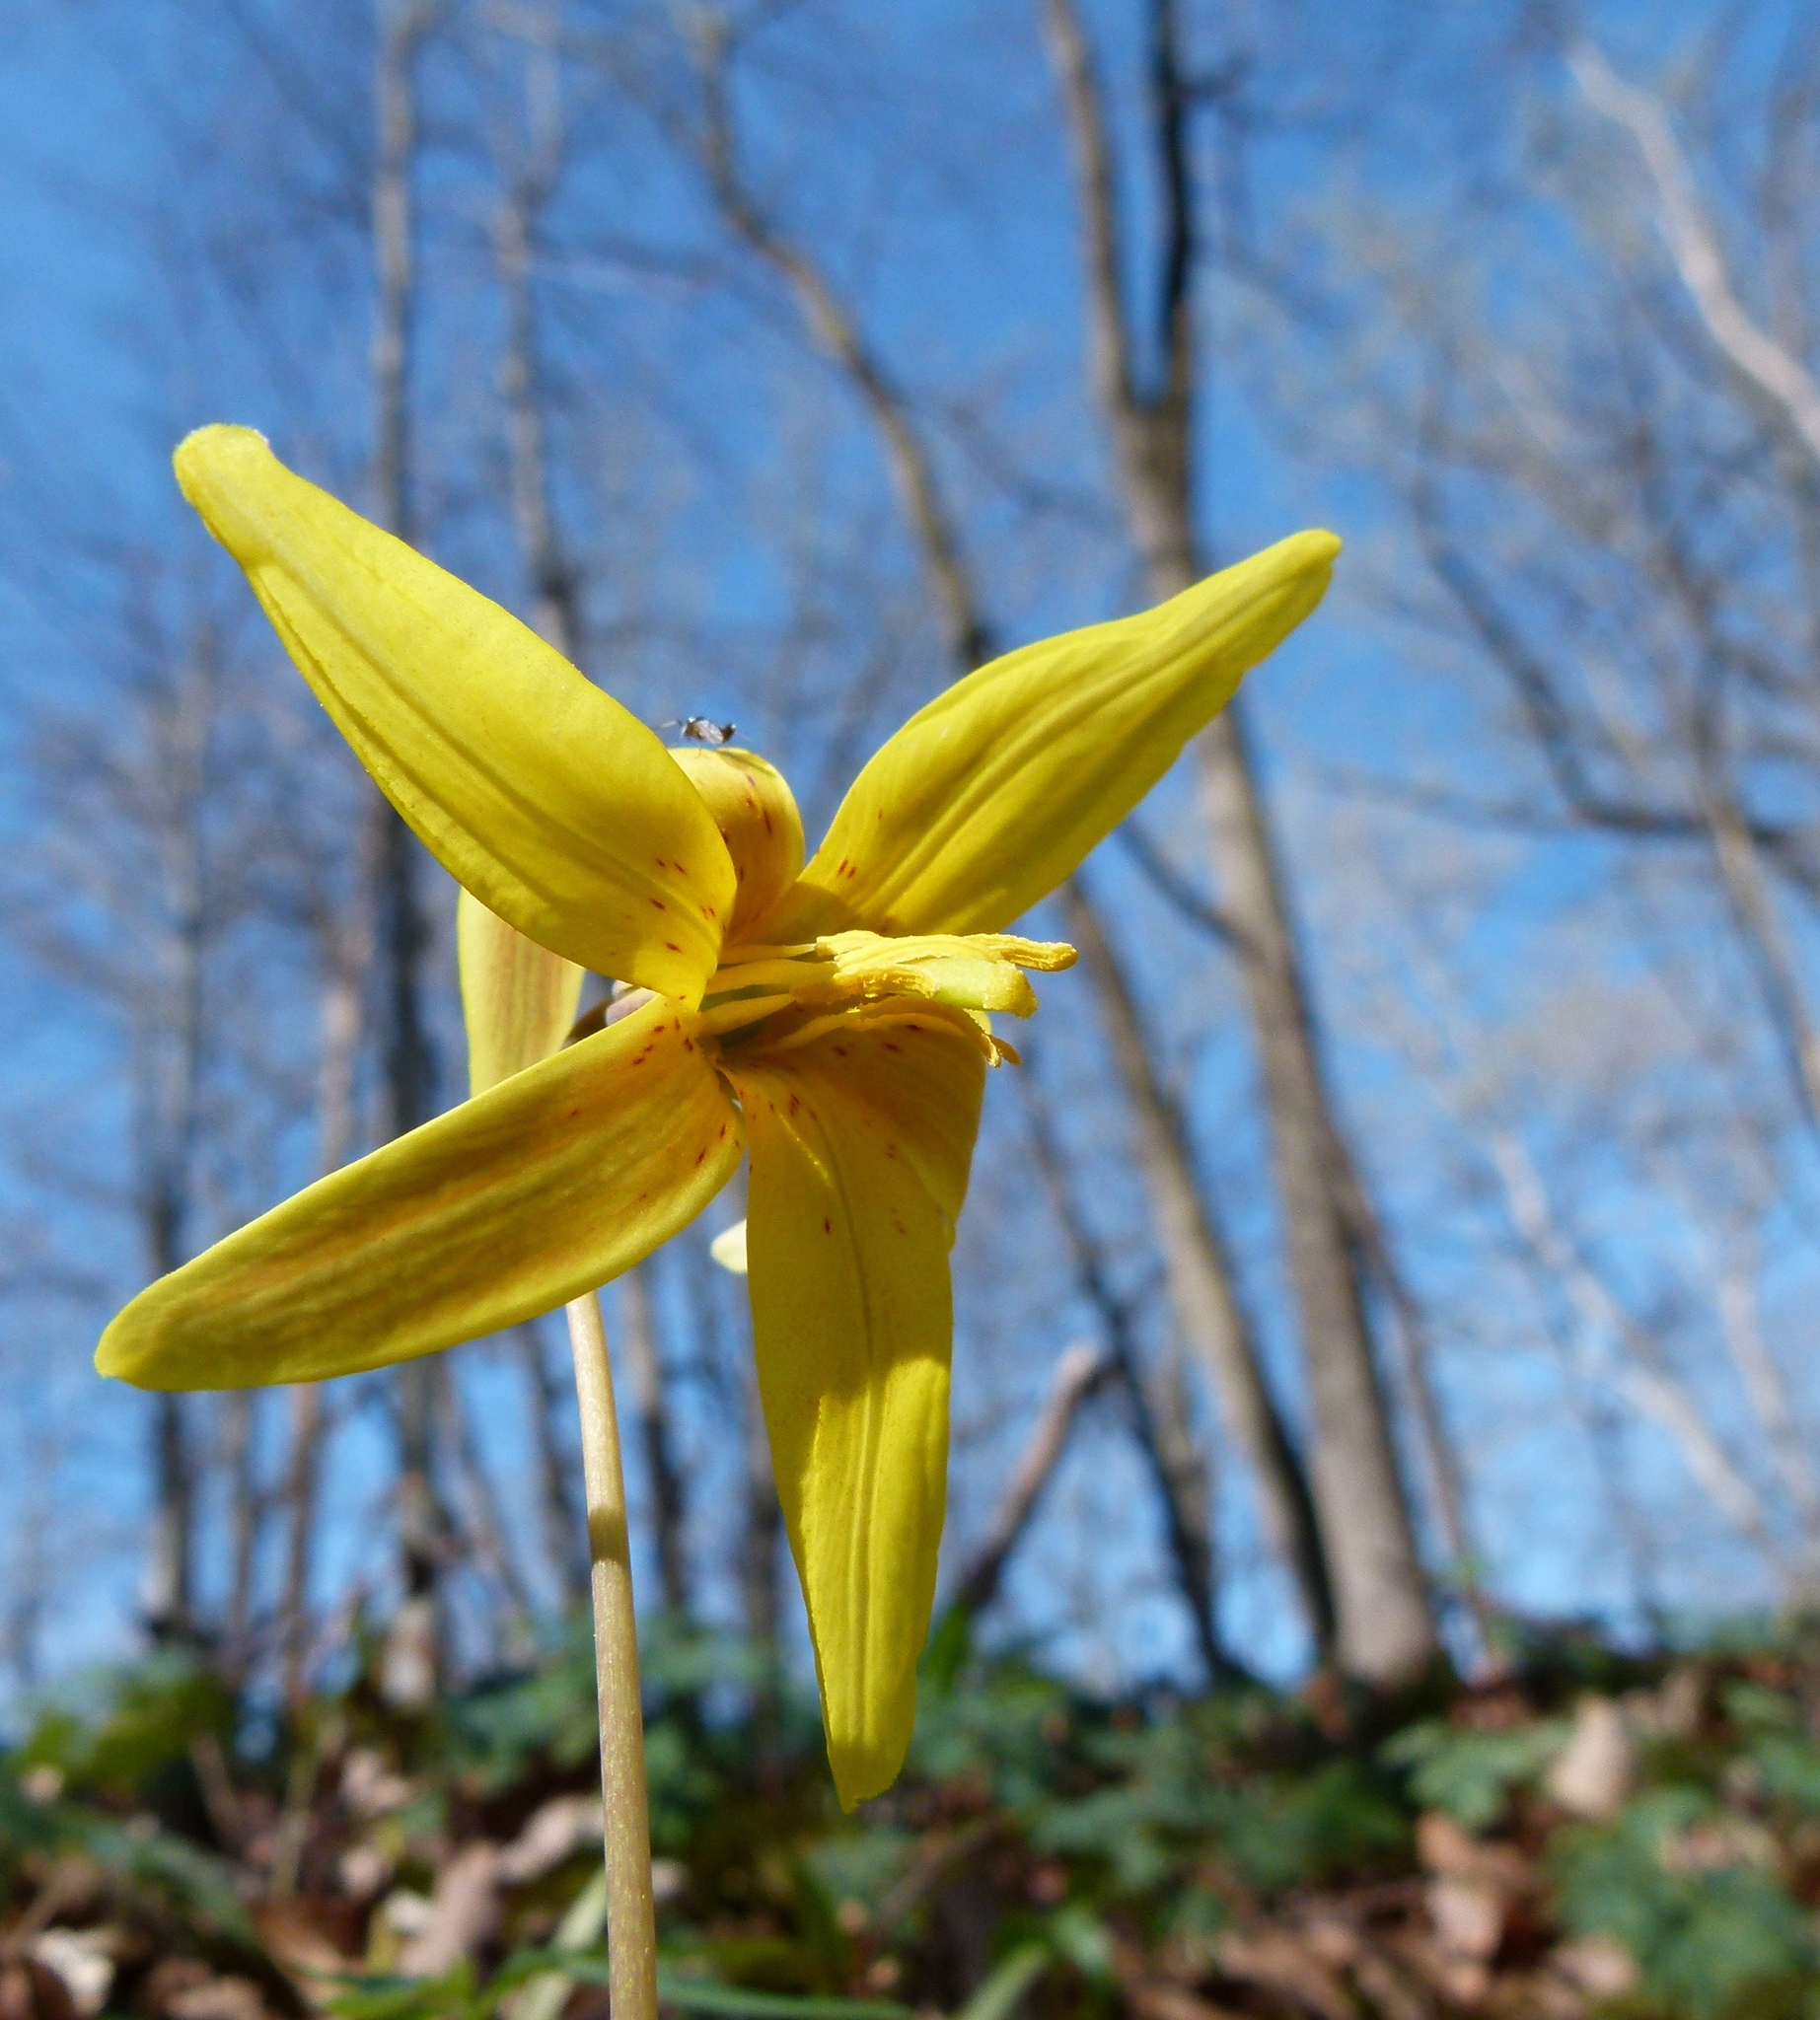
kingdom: Plantae
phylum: Tracheophyta
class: Liliopsida
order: Liliales
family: Liliaceae
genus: Erythronium
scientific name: Erythronium americanum
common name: Yellow adder's-tongue
